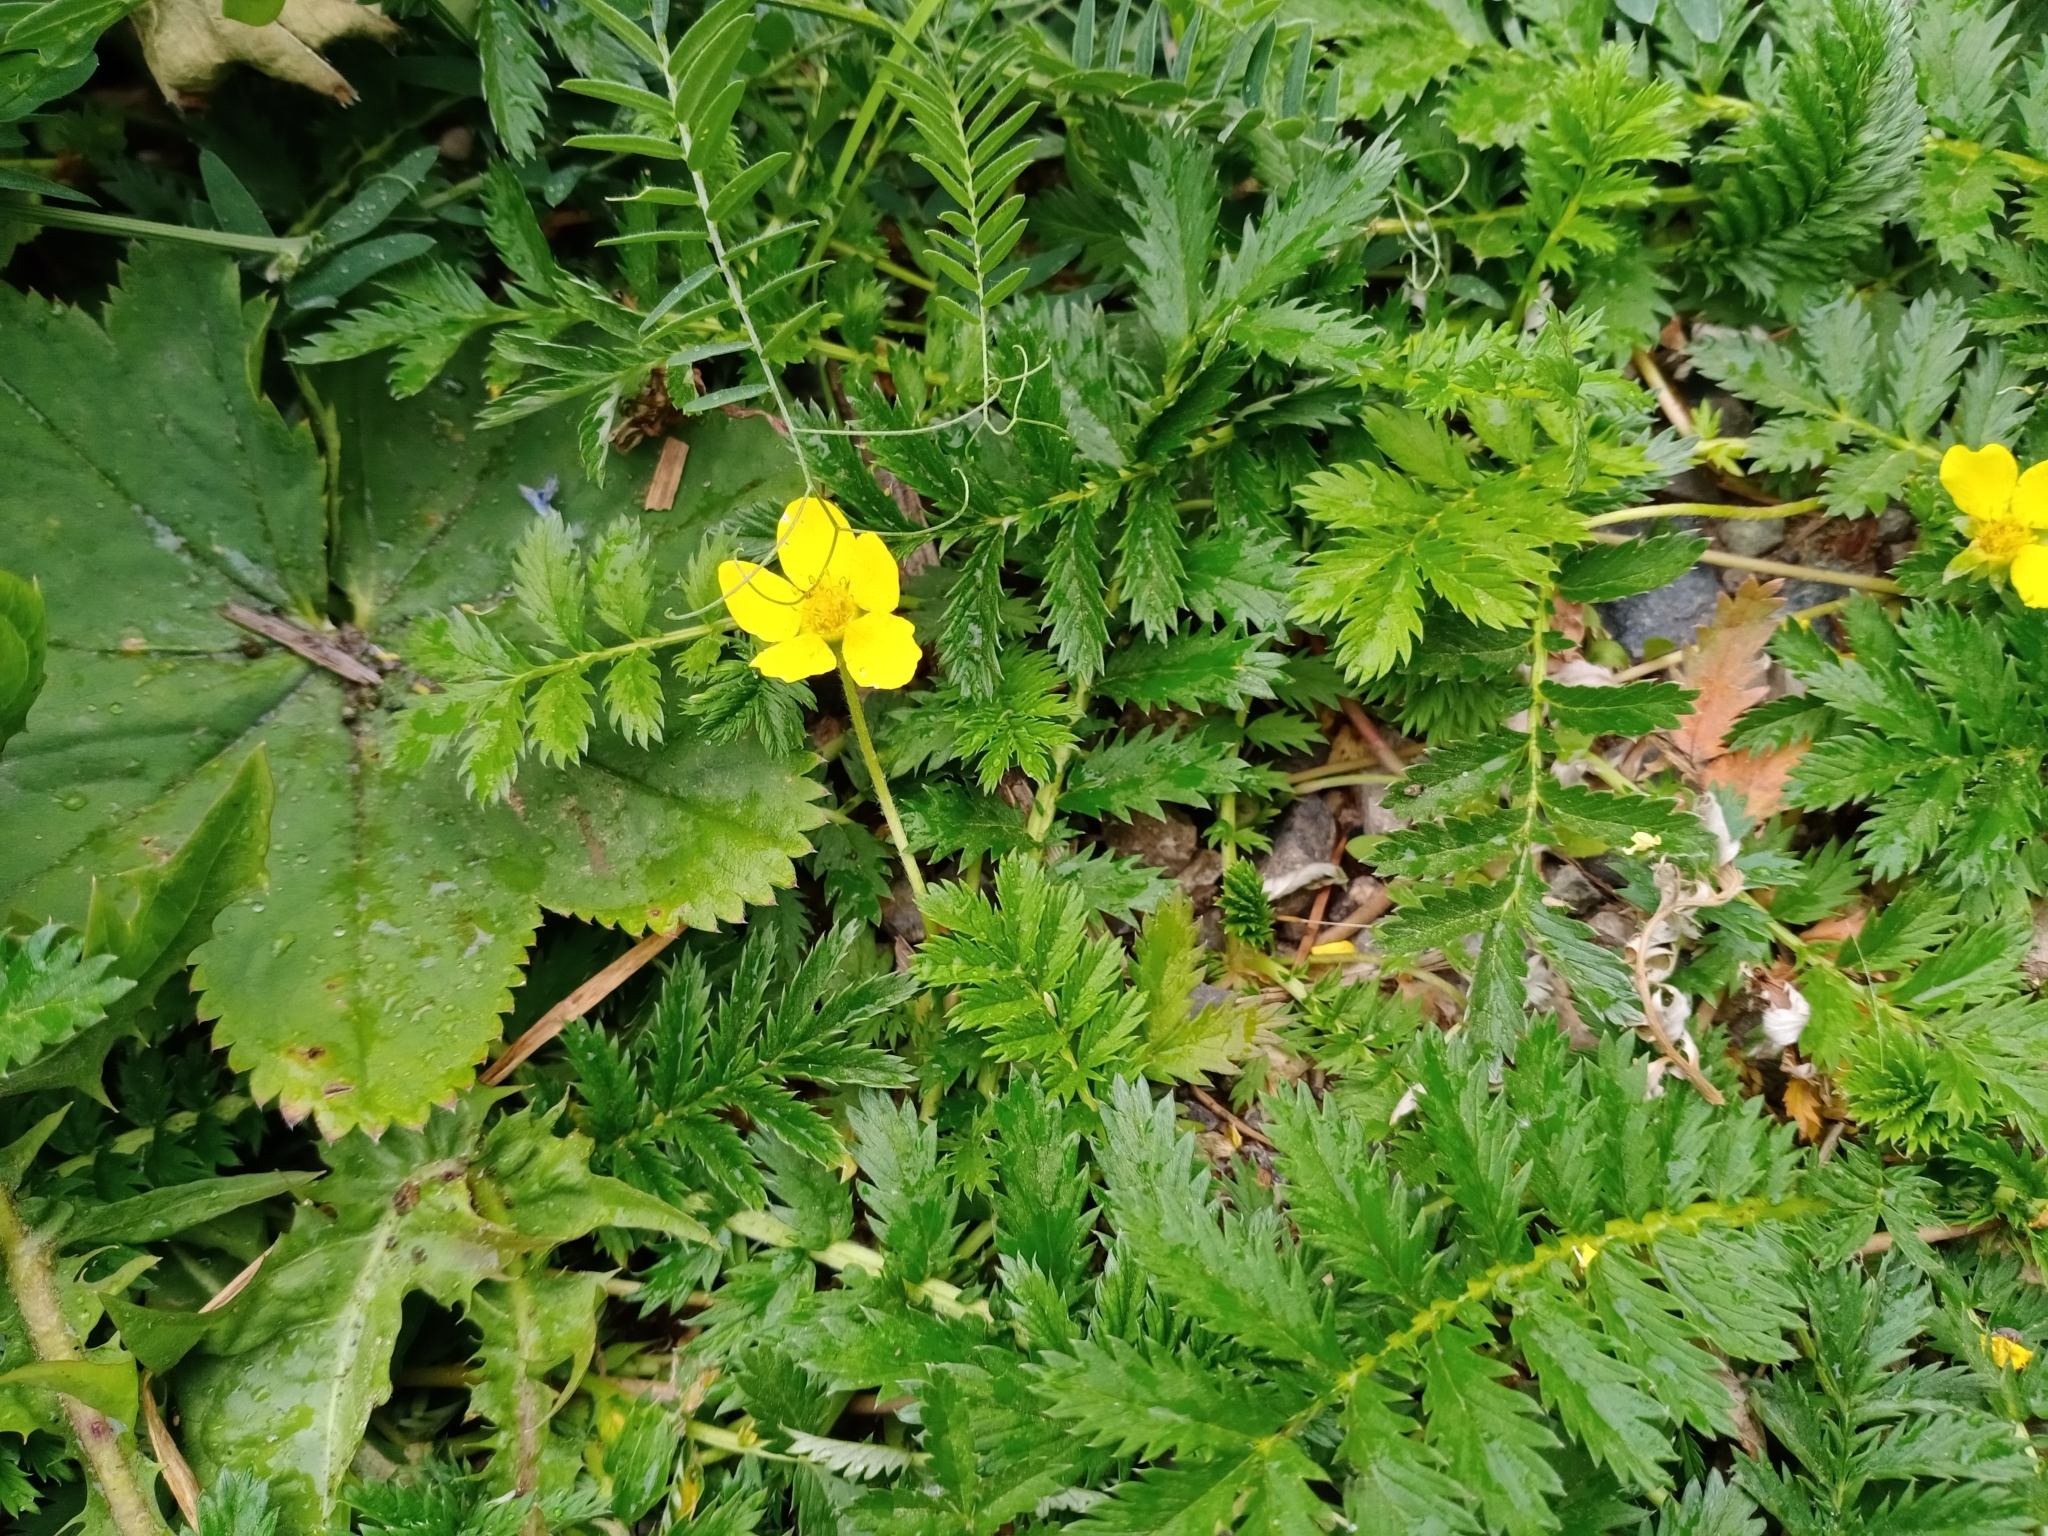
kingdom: Plantae
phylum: Tracheophyta
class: Magnoliopsida
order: Rosales
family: Rosaceae
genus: Argentina
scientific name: Argentina anserina
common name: Common silverweed
